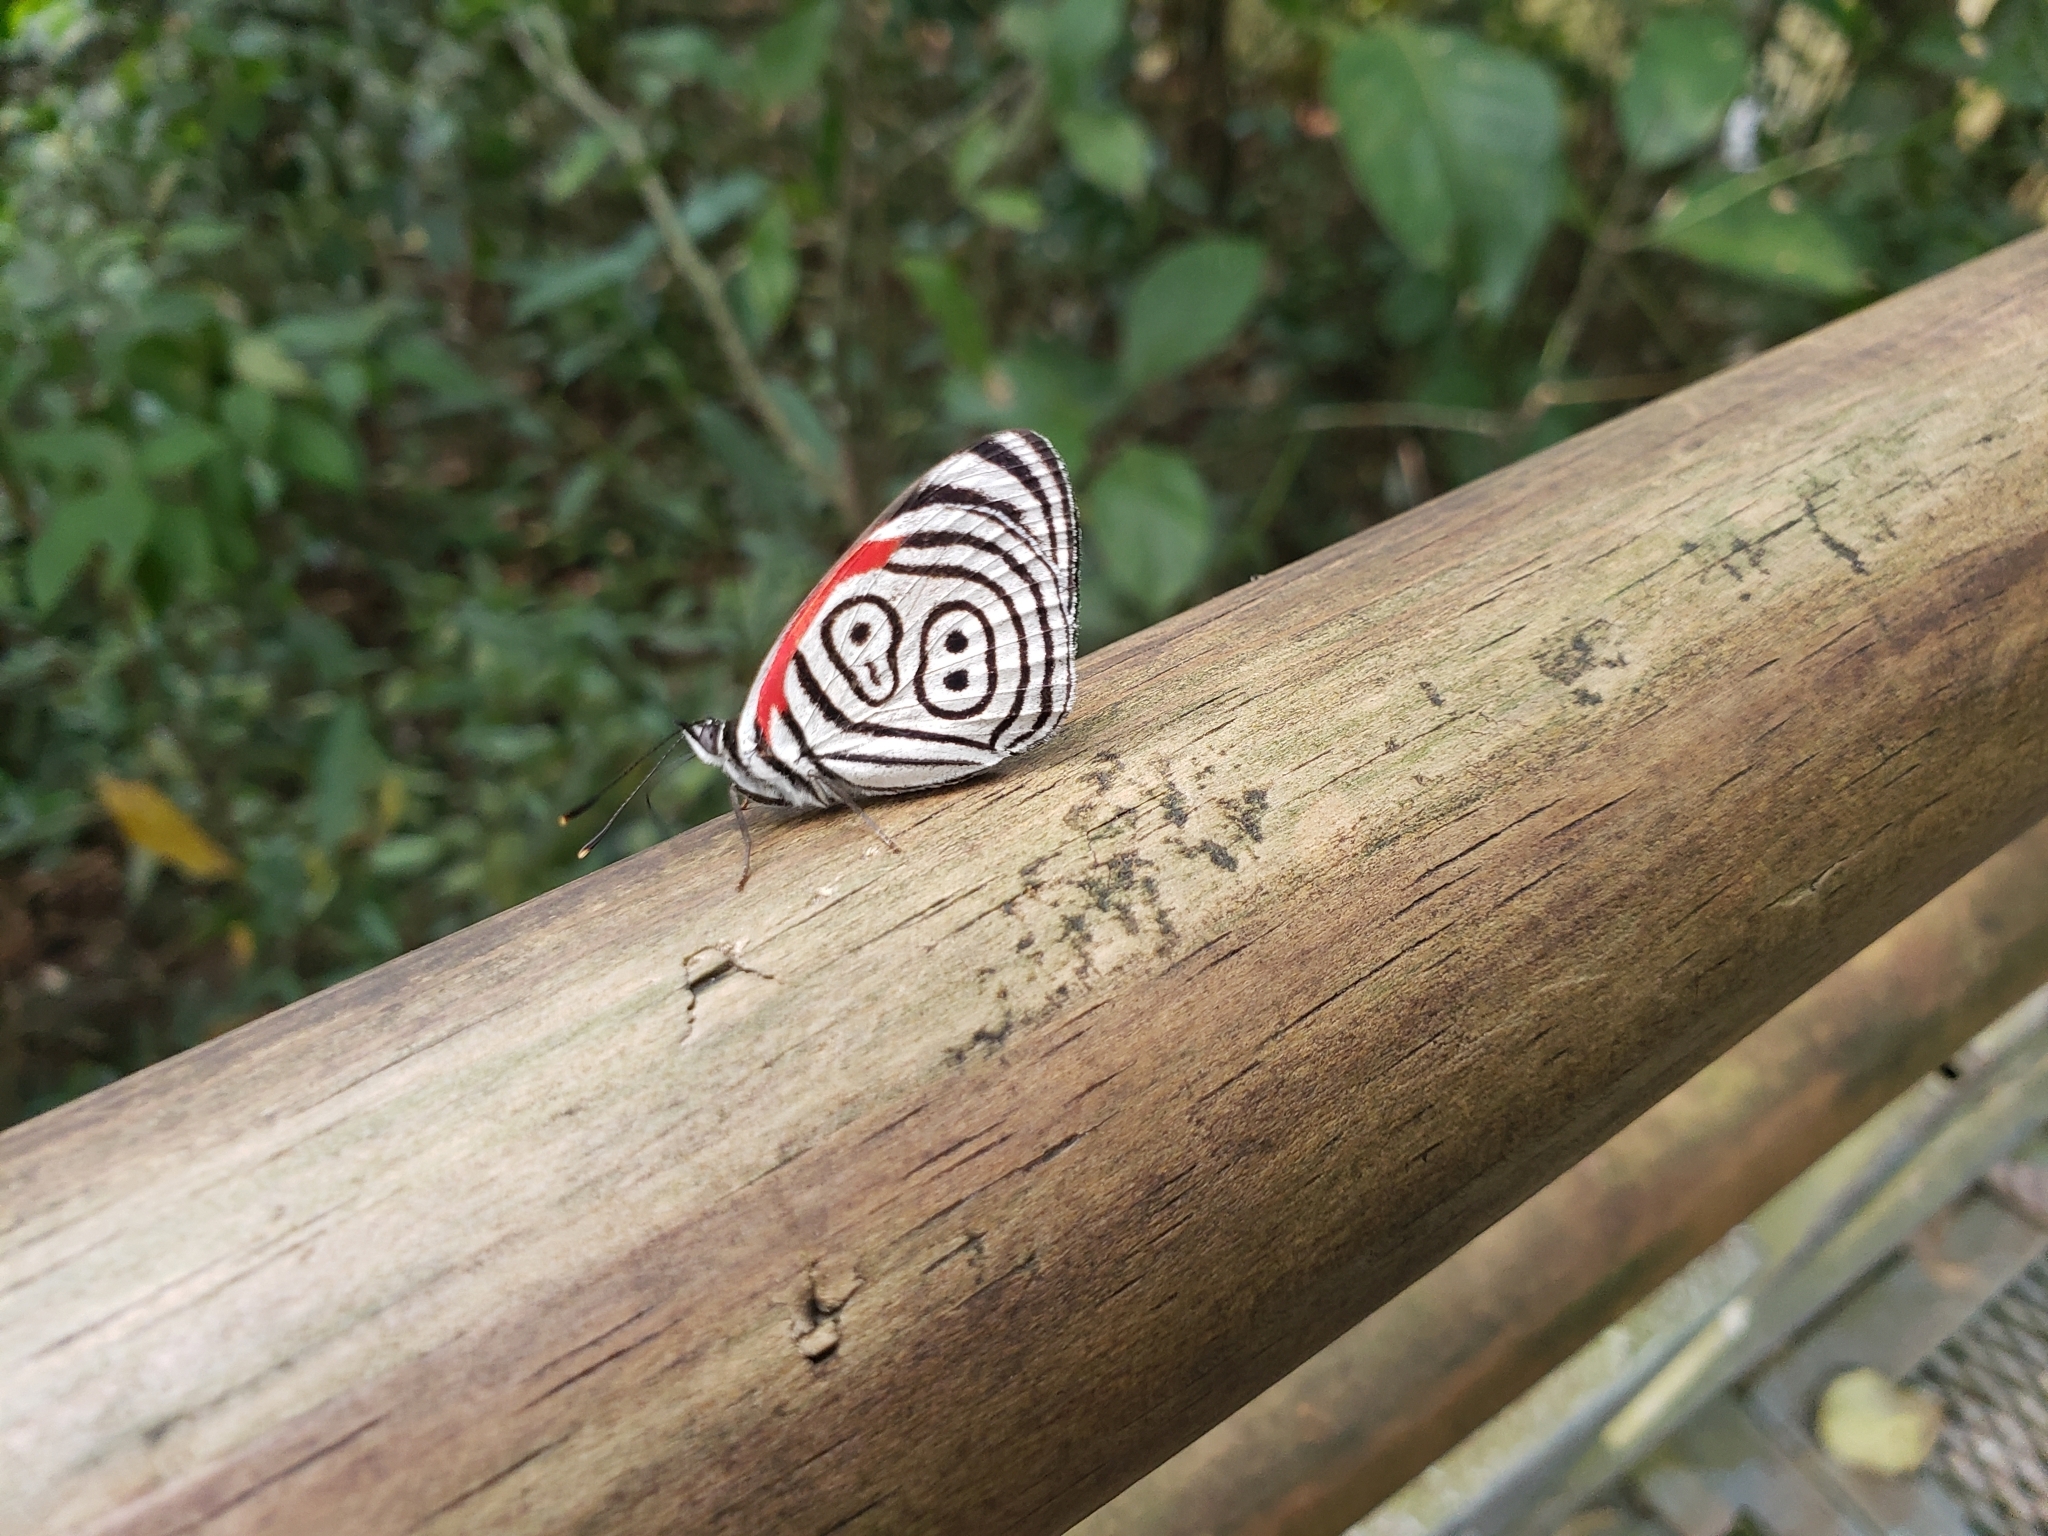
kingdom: Animalia
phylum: Arthropoda
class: Insecta
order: Lepidoptera
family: Nymphalidae
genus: Diaethria
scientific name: Diaethria clymena
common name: Widespread eighty-eight
